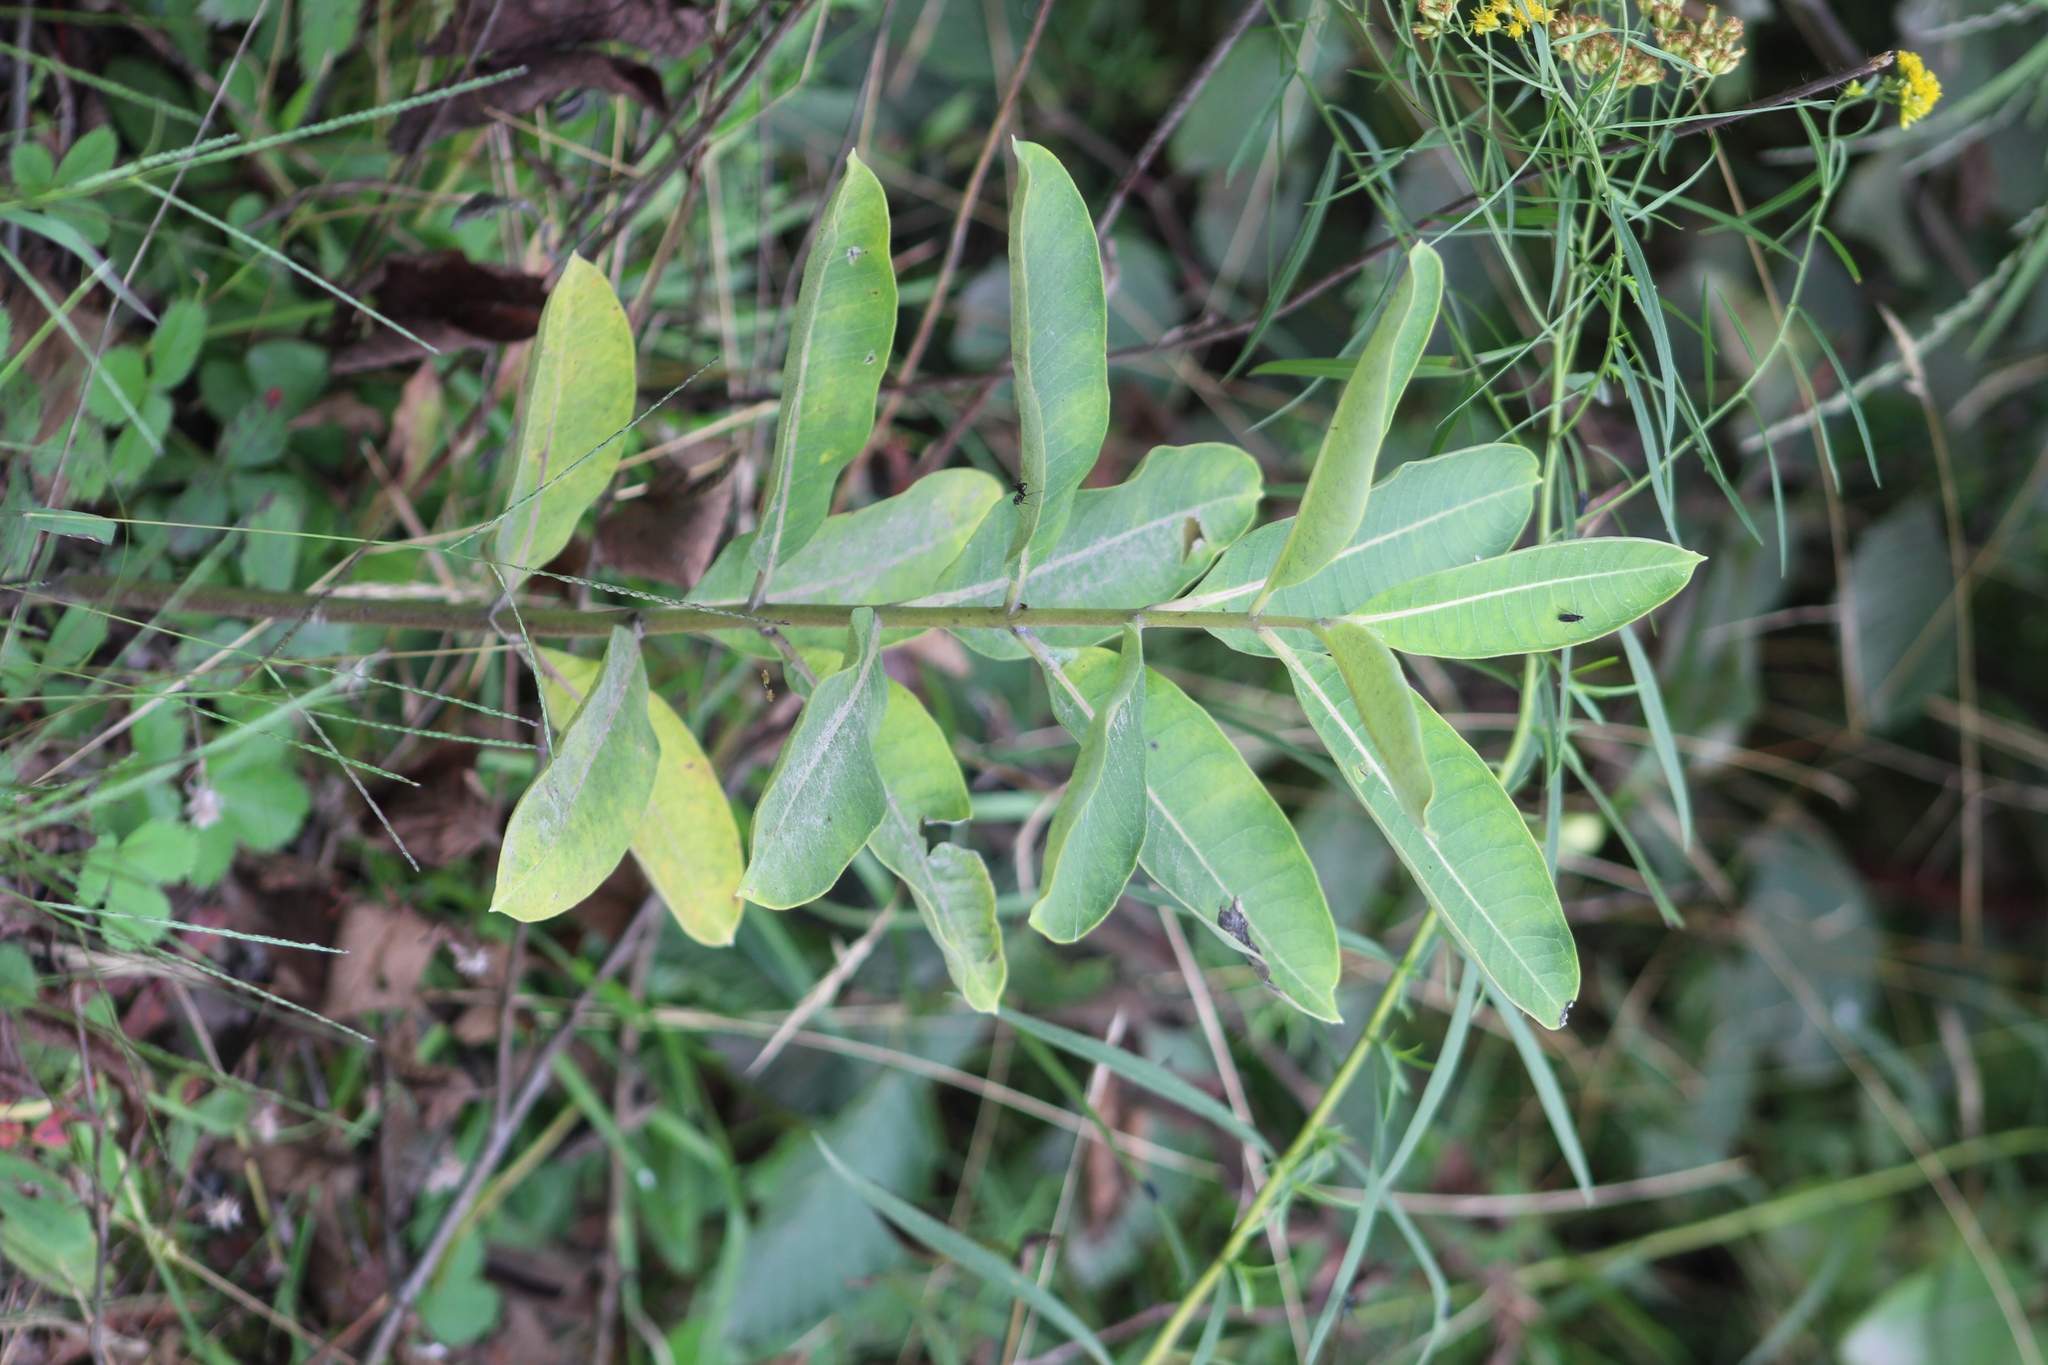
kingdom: Plantae
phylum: Tracheophyta
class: Magnoliopsida
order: Gentianales
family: Apocynaceae
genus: Asclepias
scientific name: Asclepias syriaca
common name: Common milkweed
